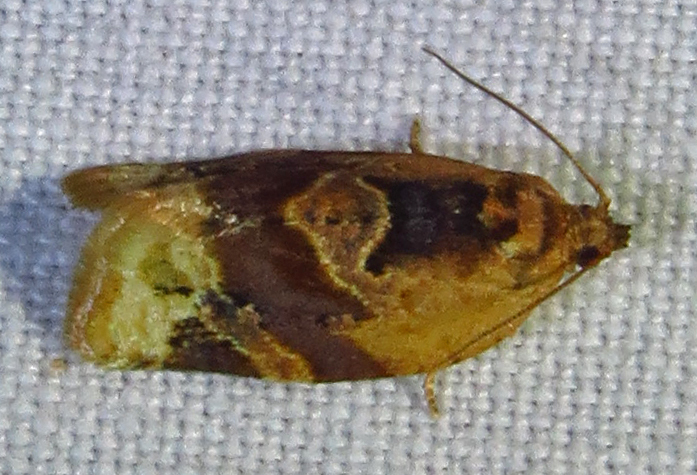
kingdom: Animalia
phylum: Arthropoda
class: Insecta
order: Lepidoptera
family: Tortricidae
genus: Argyrotaenia
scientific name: Argyrotaenia velutinana
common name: Red-banded leafroller moth
